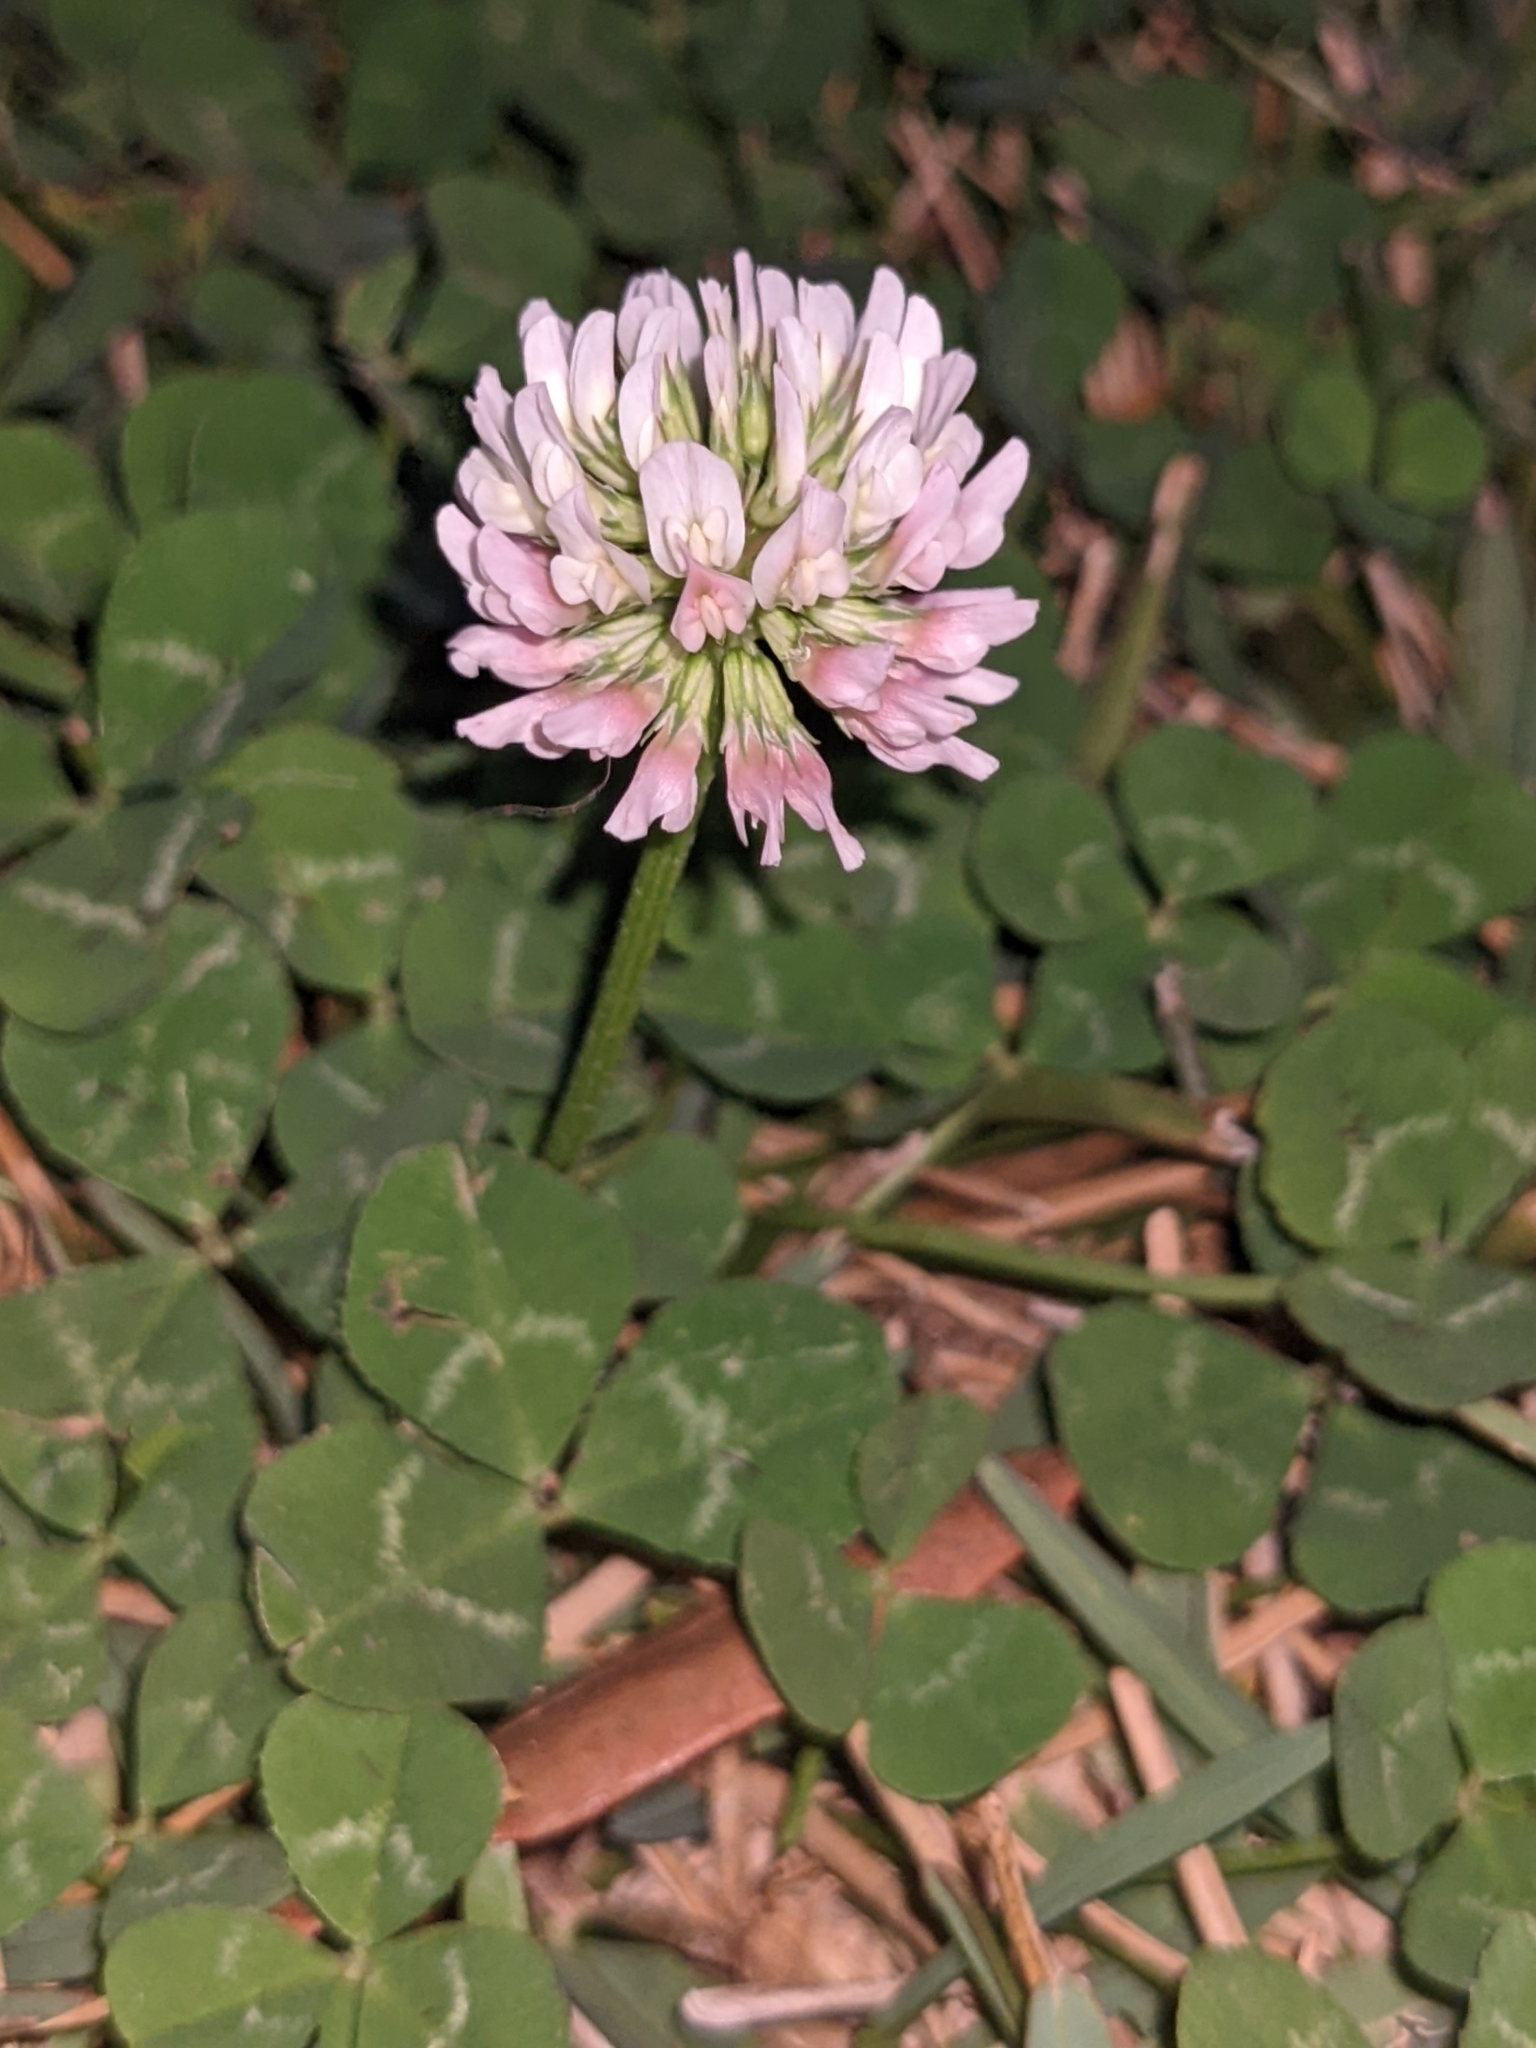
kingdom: Plantae
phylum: Tracheophyta
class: Magnoliopsida
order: Fabales
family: Fabaceae
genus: Trifolium
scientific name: Trifolium repens
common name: White clover
